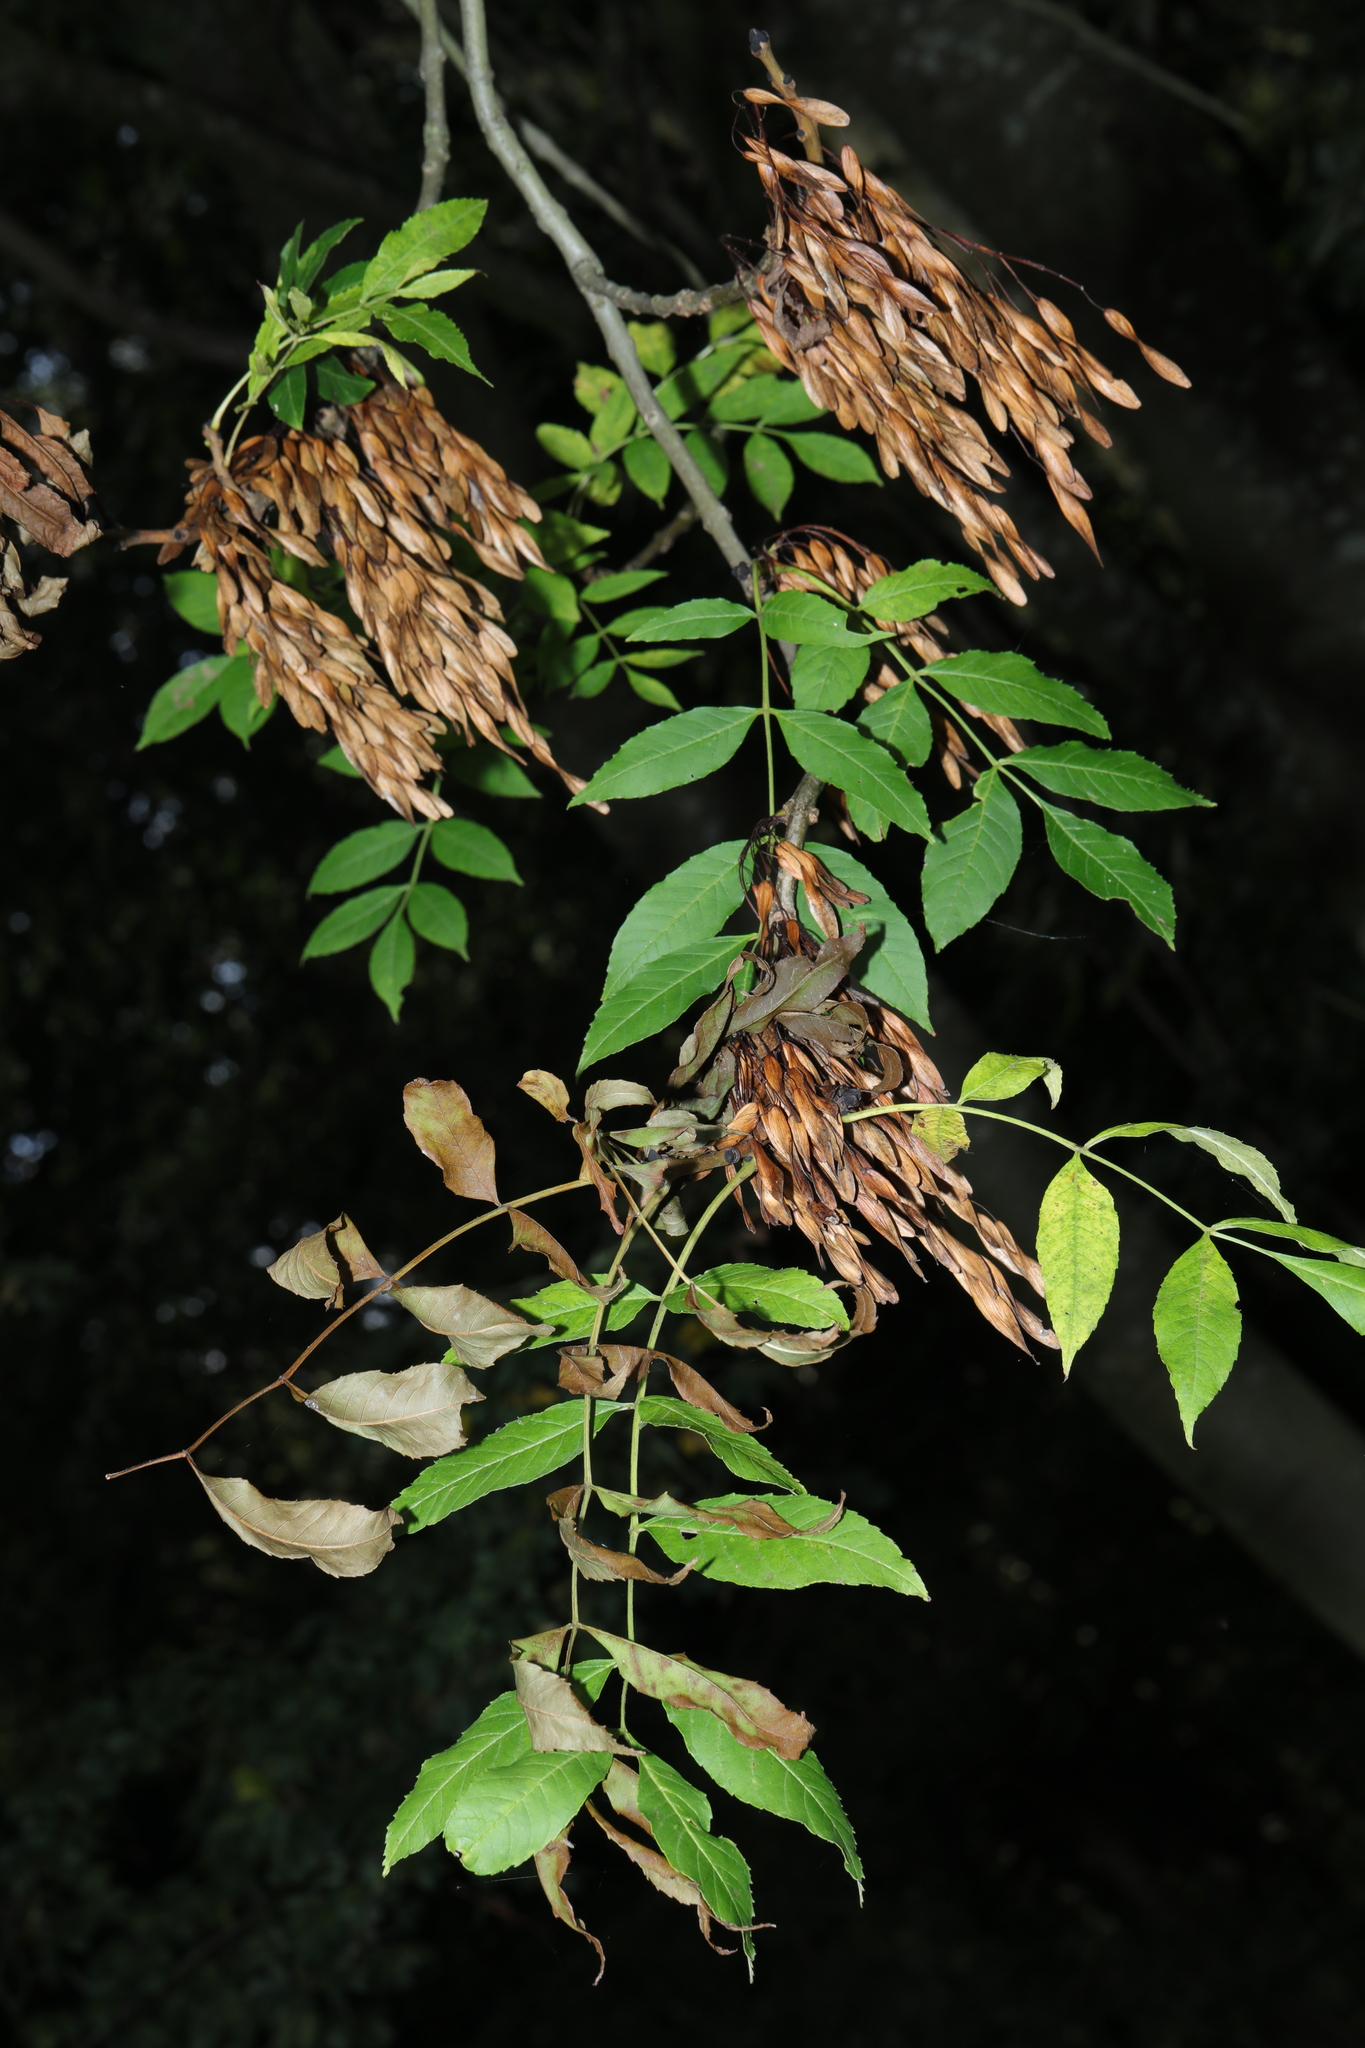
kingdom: Plantae
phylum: Tracheophyta
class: Magnoliopsida
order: Lamiales
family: Oleaceae
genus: Fraxinus
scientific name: Fraxinus excelsior
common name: European ash
